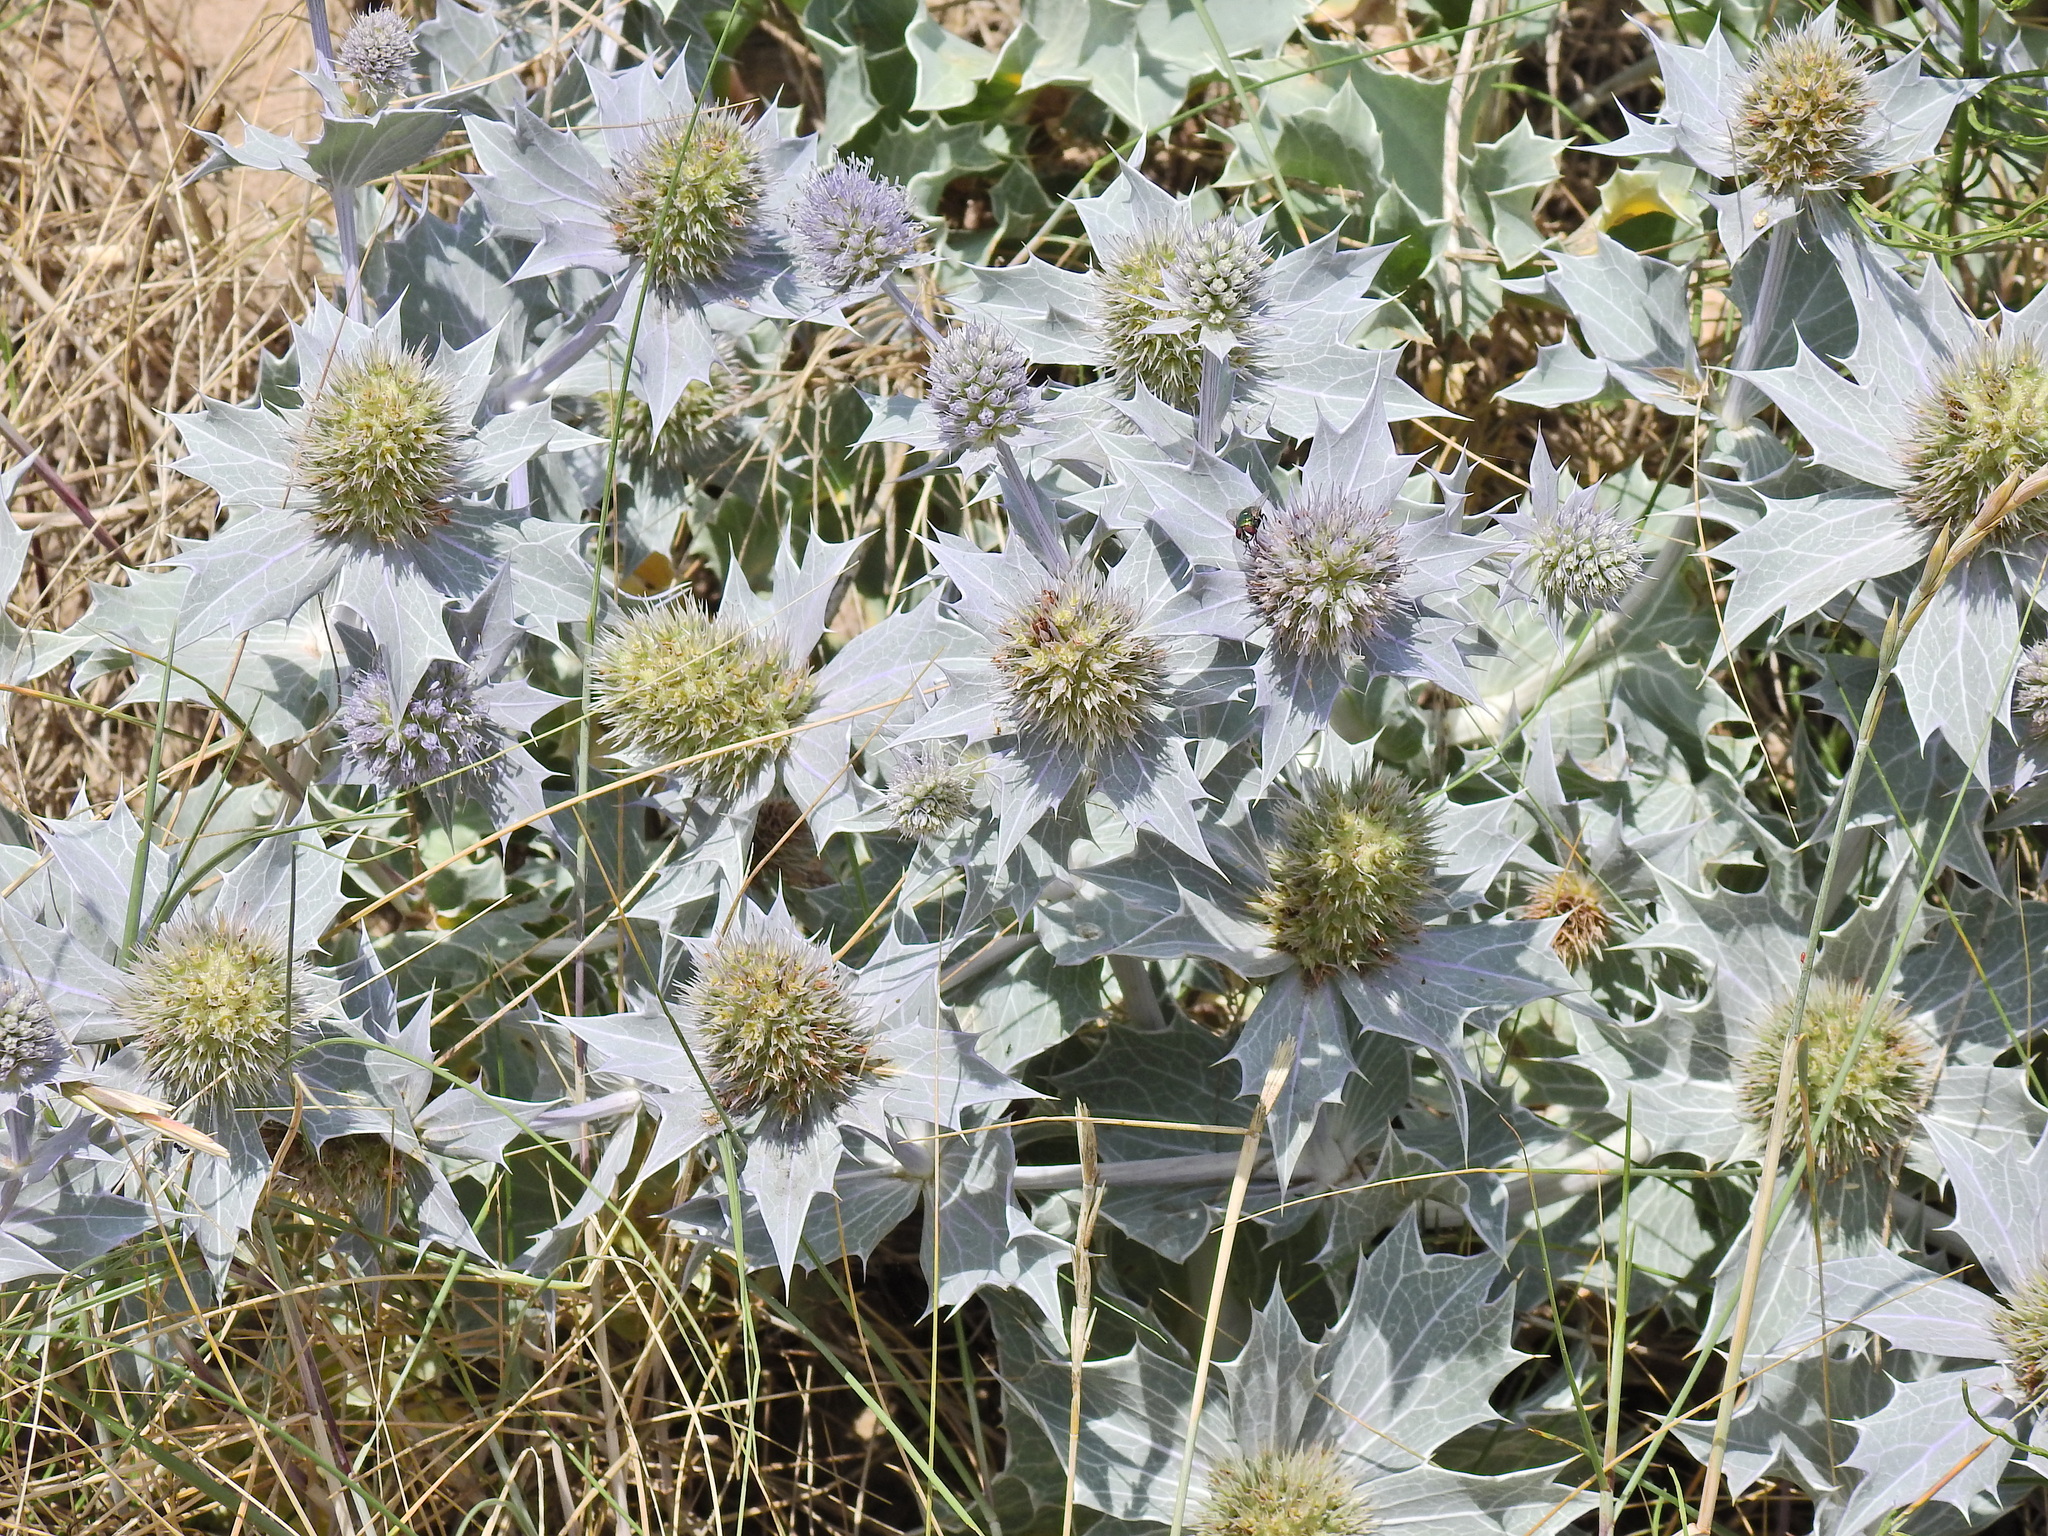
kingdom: Plantae
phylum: Tracheophyta
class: Magnoliopsida
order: Apiales
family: Apiaceae
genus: Eryngium
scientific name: Eryngium maritimum
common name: Sea-holly
